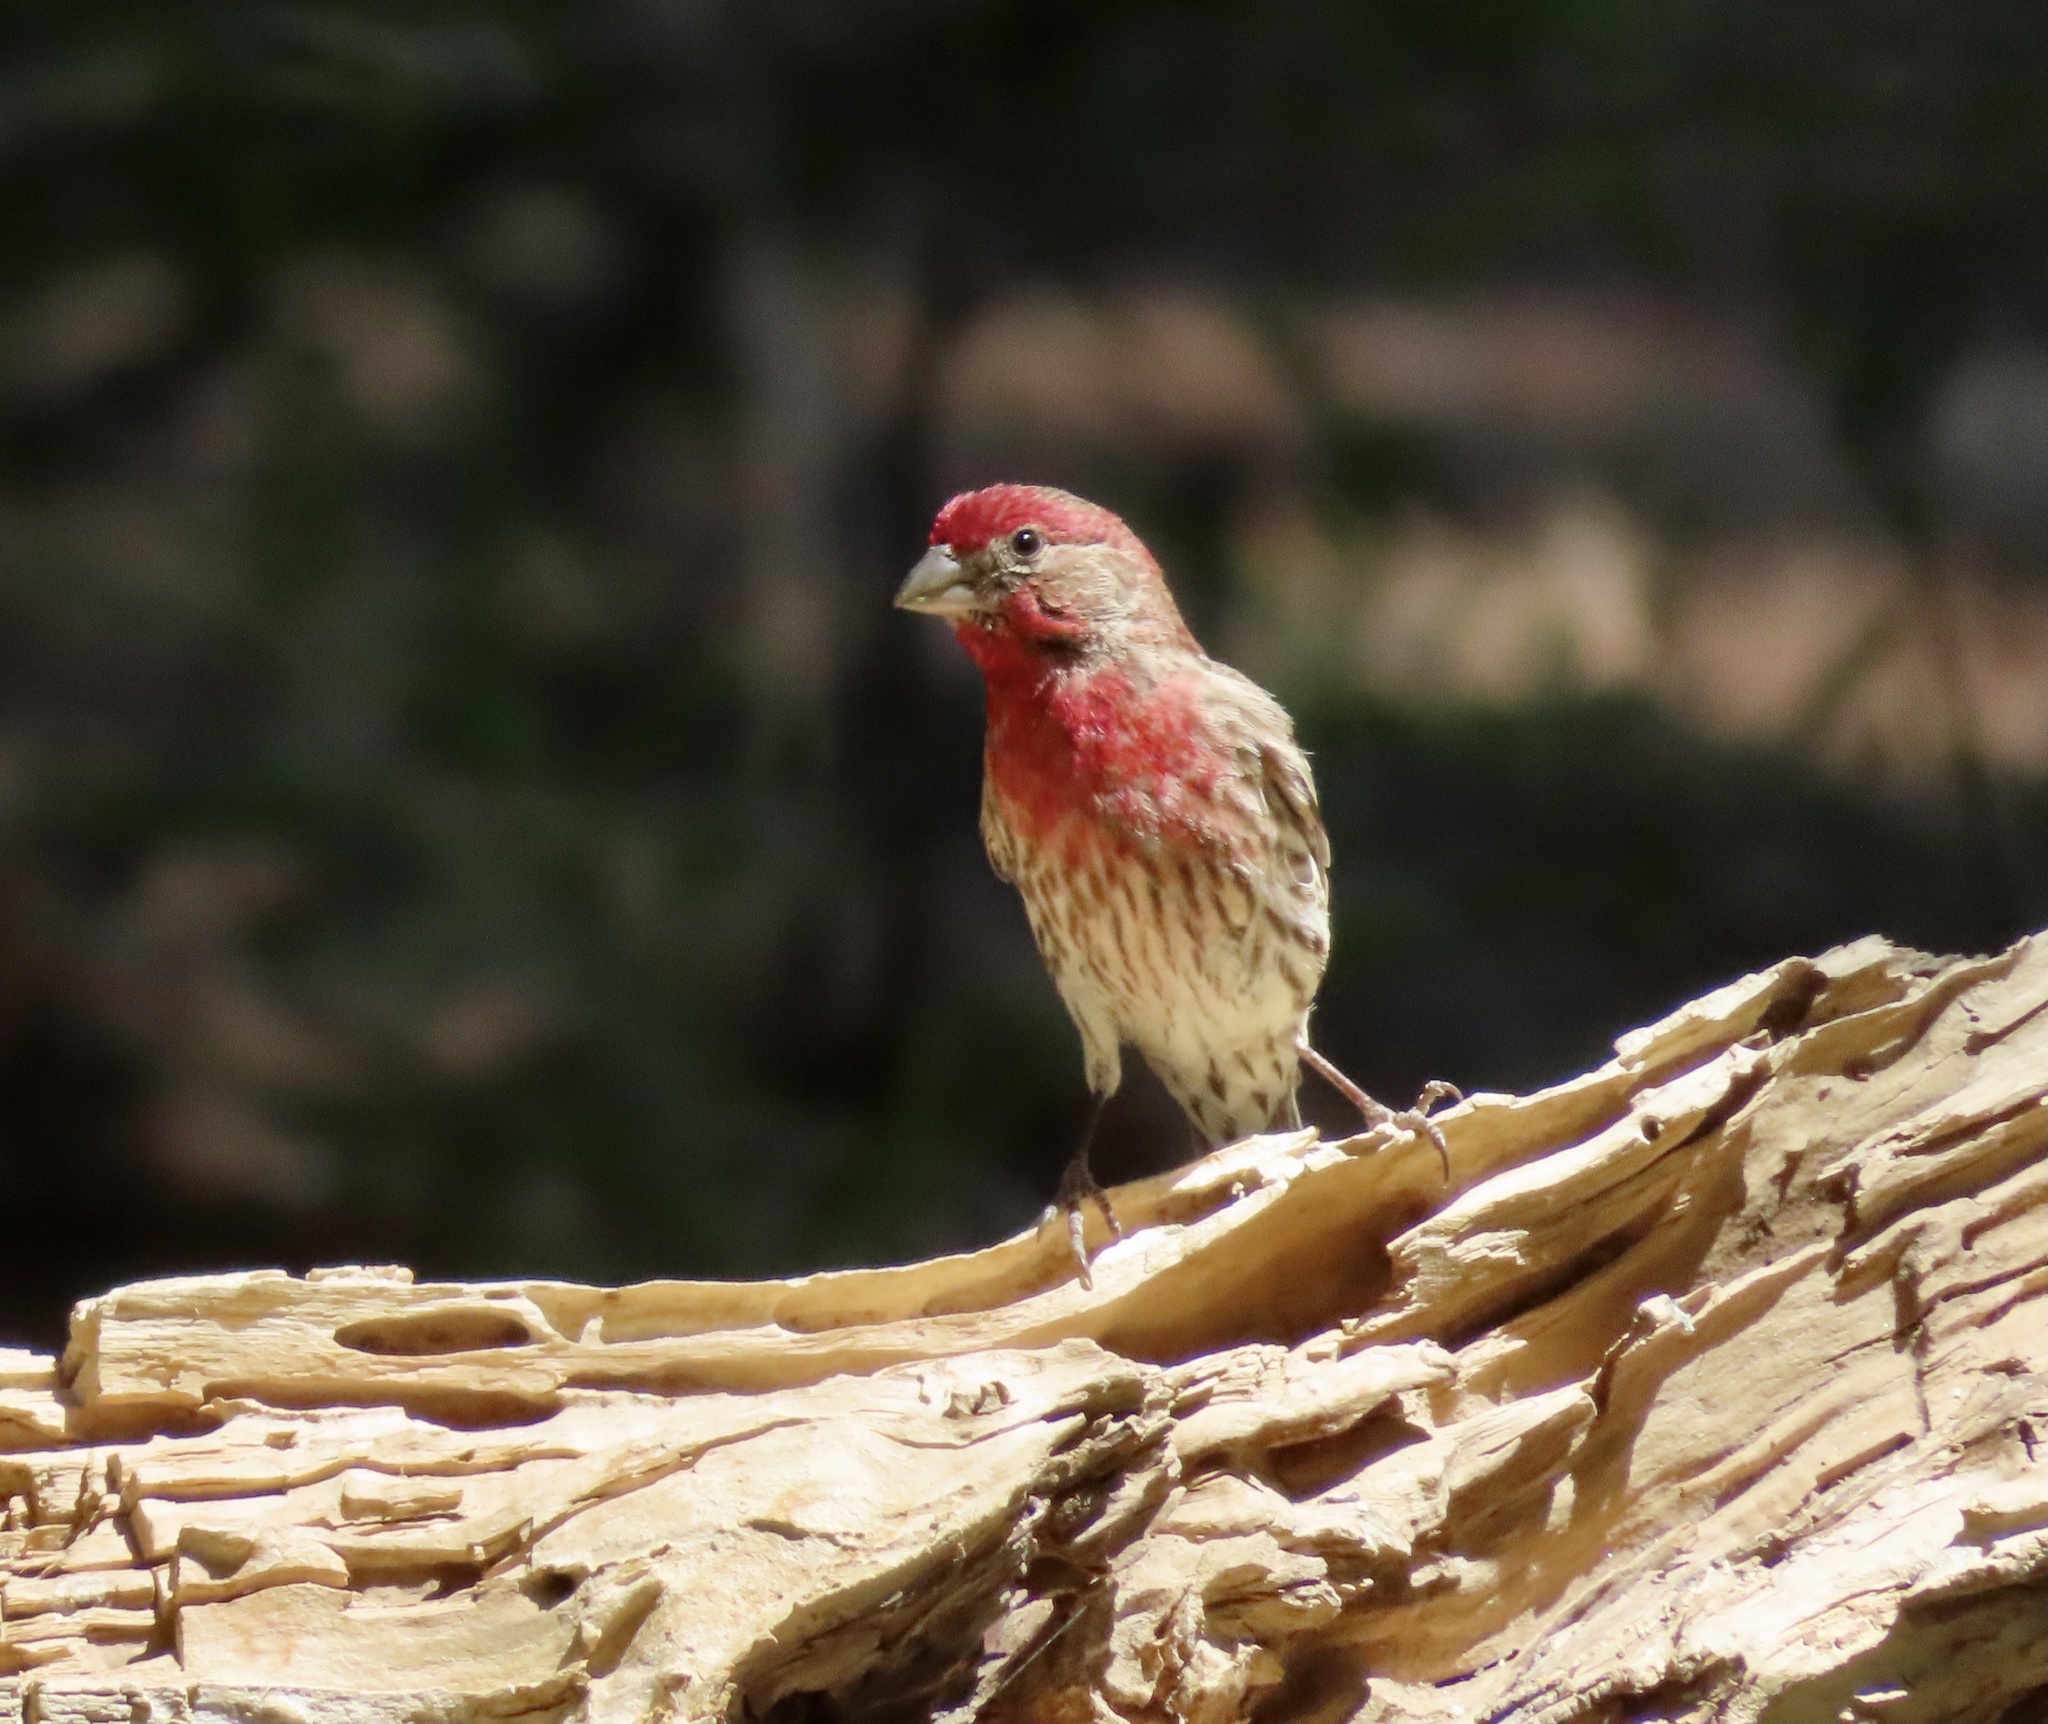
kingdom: Animalia
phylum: Chordata
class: Aves
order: Passeriformes
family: Fringillidae
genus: Haemorhous
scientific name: Haemorhous mexicanus
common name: House finch
